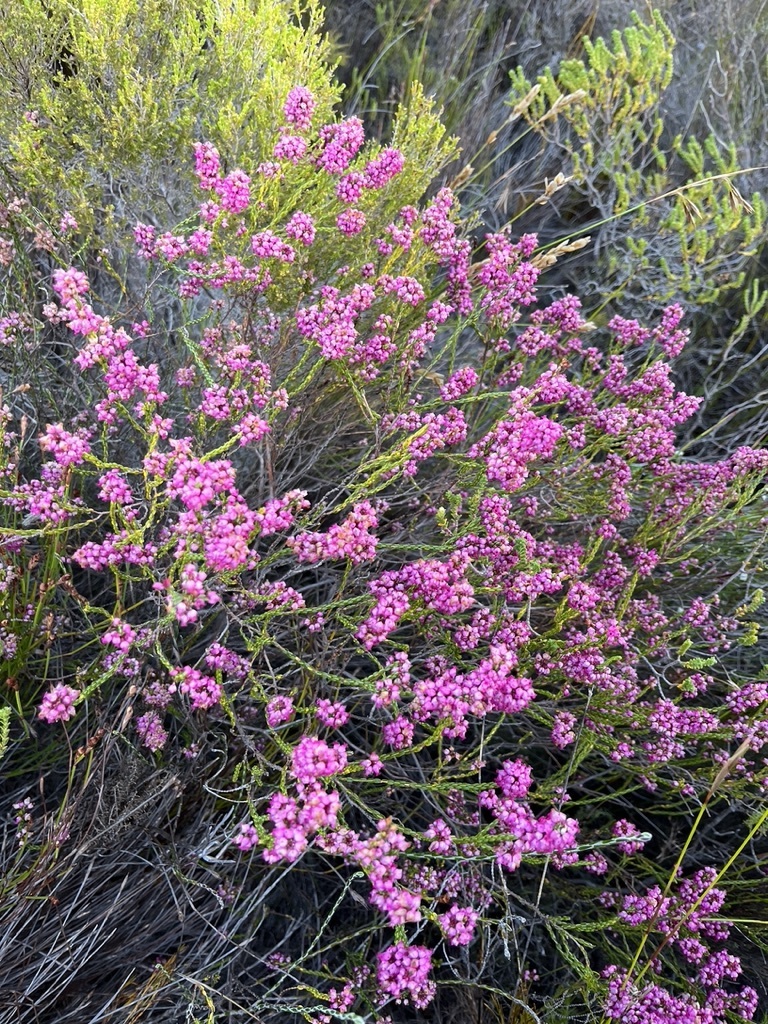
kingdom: Plantae
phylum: Tracheophyta
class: Magnoliopsida
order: Ericales
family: Ericaceae
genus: Erica
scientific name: Erica rhopalantha
